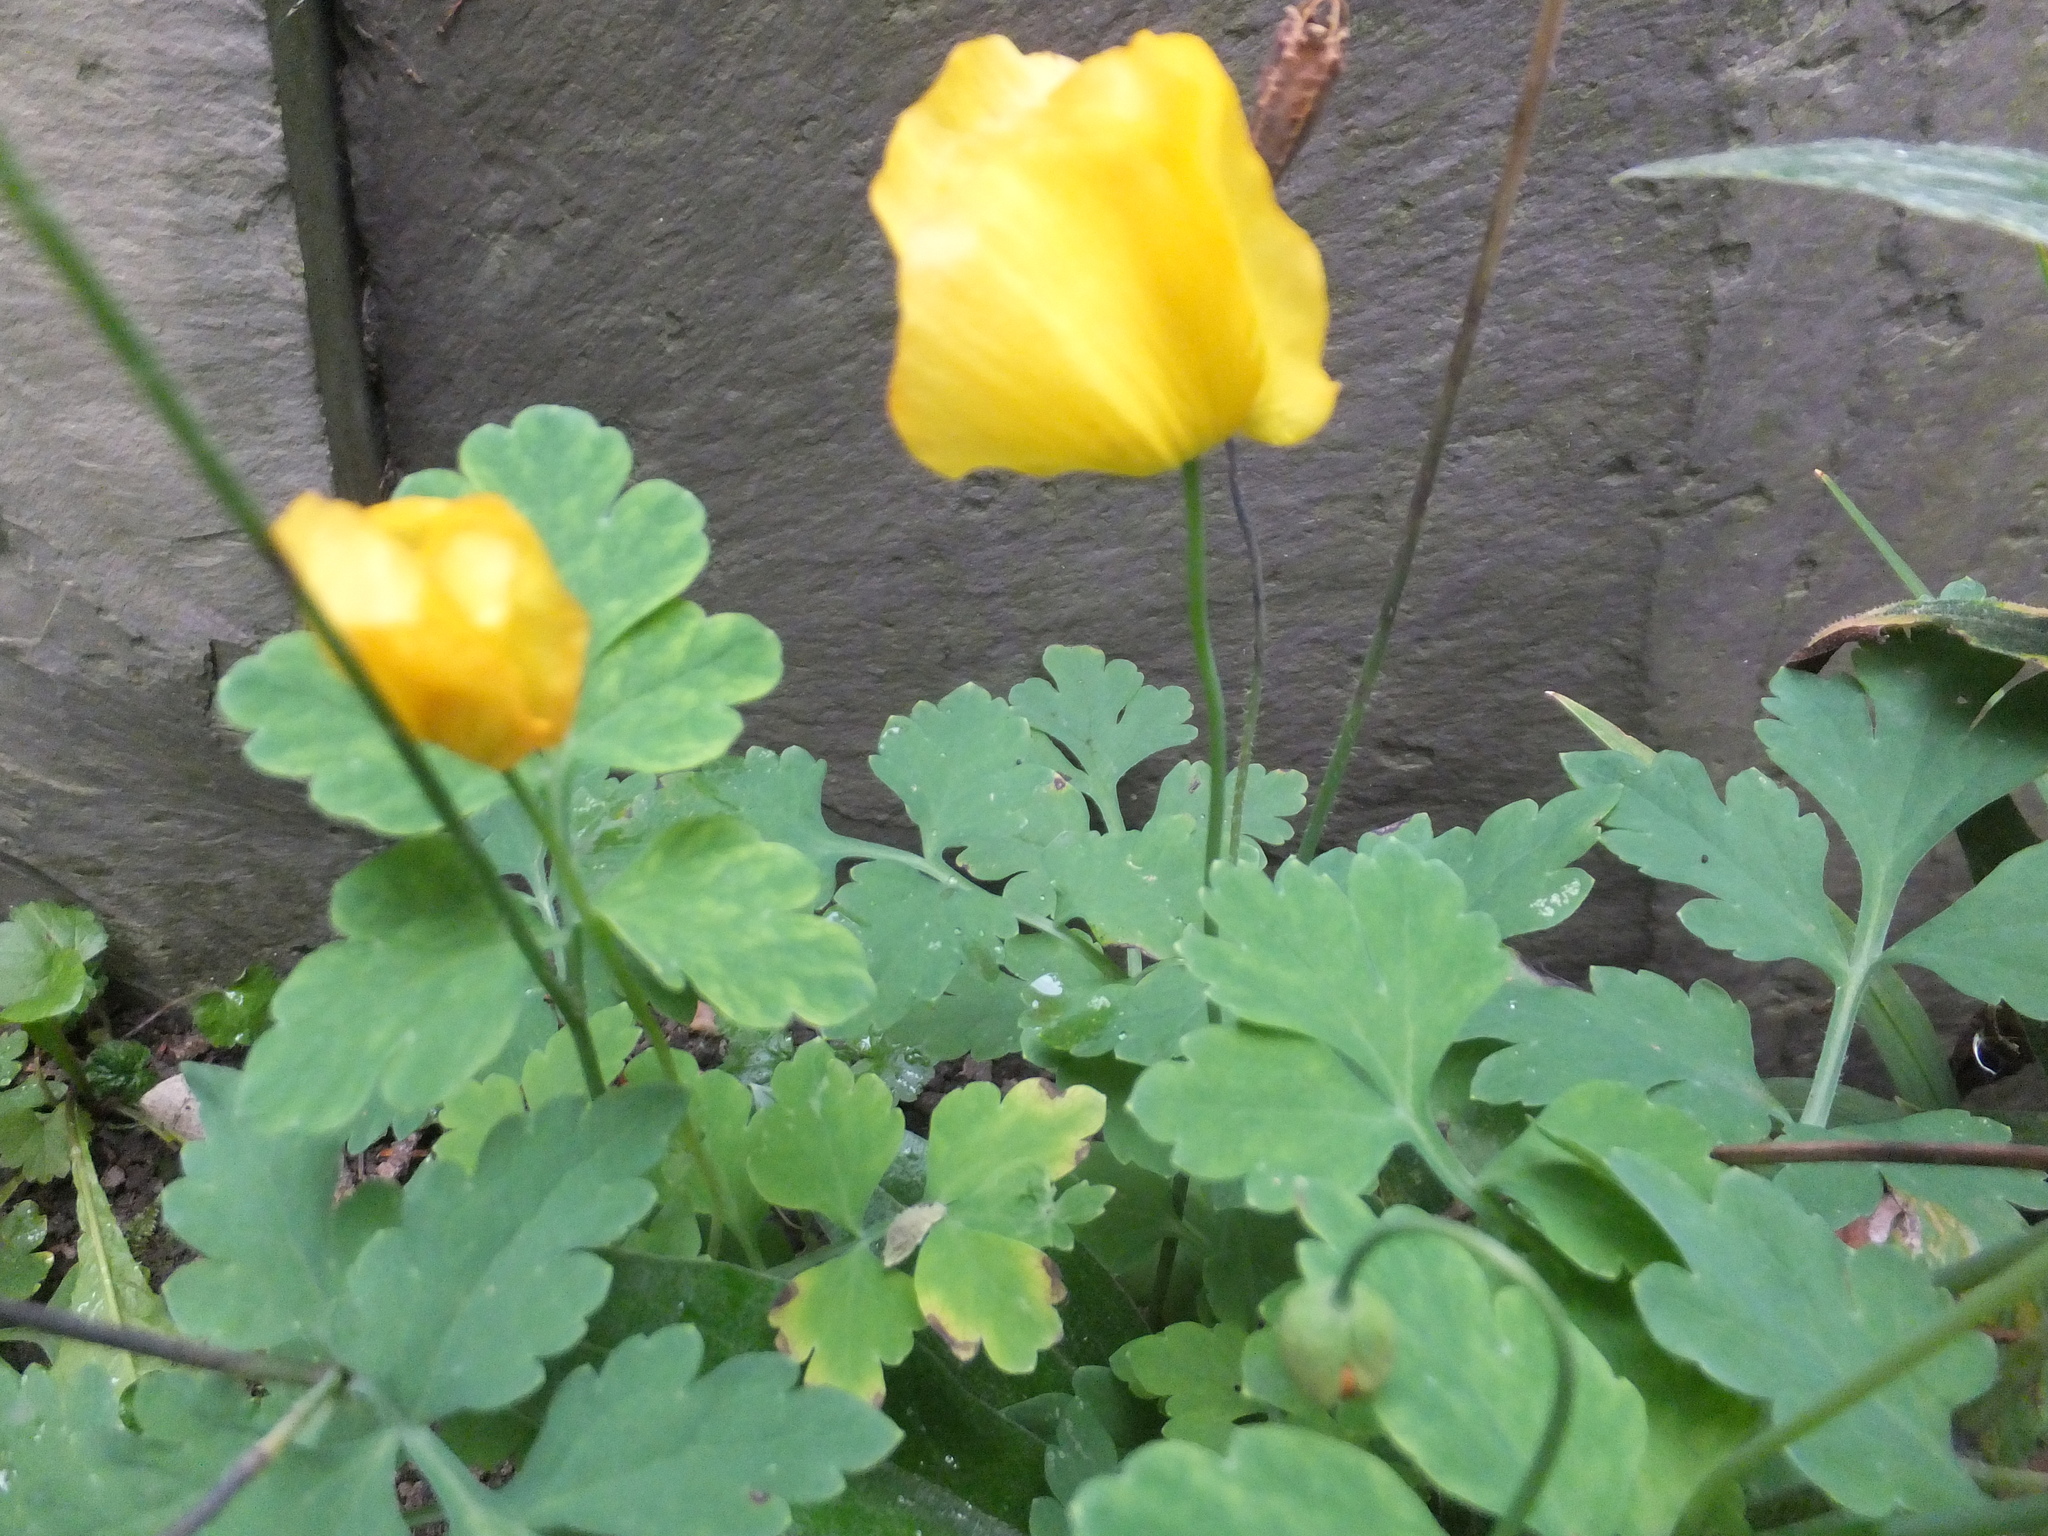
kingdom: Plantae
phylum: Tracheophyta
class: Magnoliopsida
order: Ranunculales
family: Papaveraceae
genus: Papaver
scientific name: Papaver cambricum
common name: Poppy
